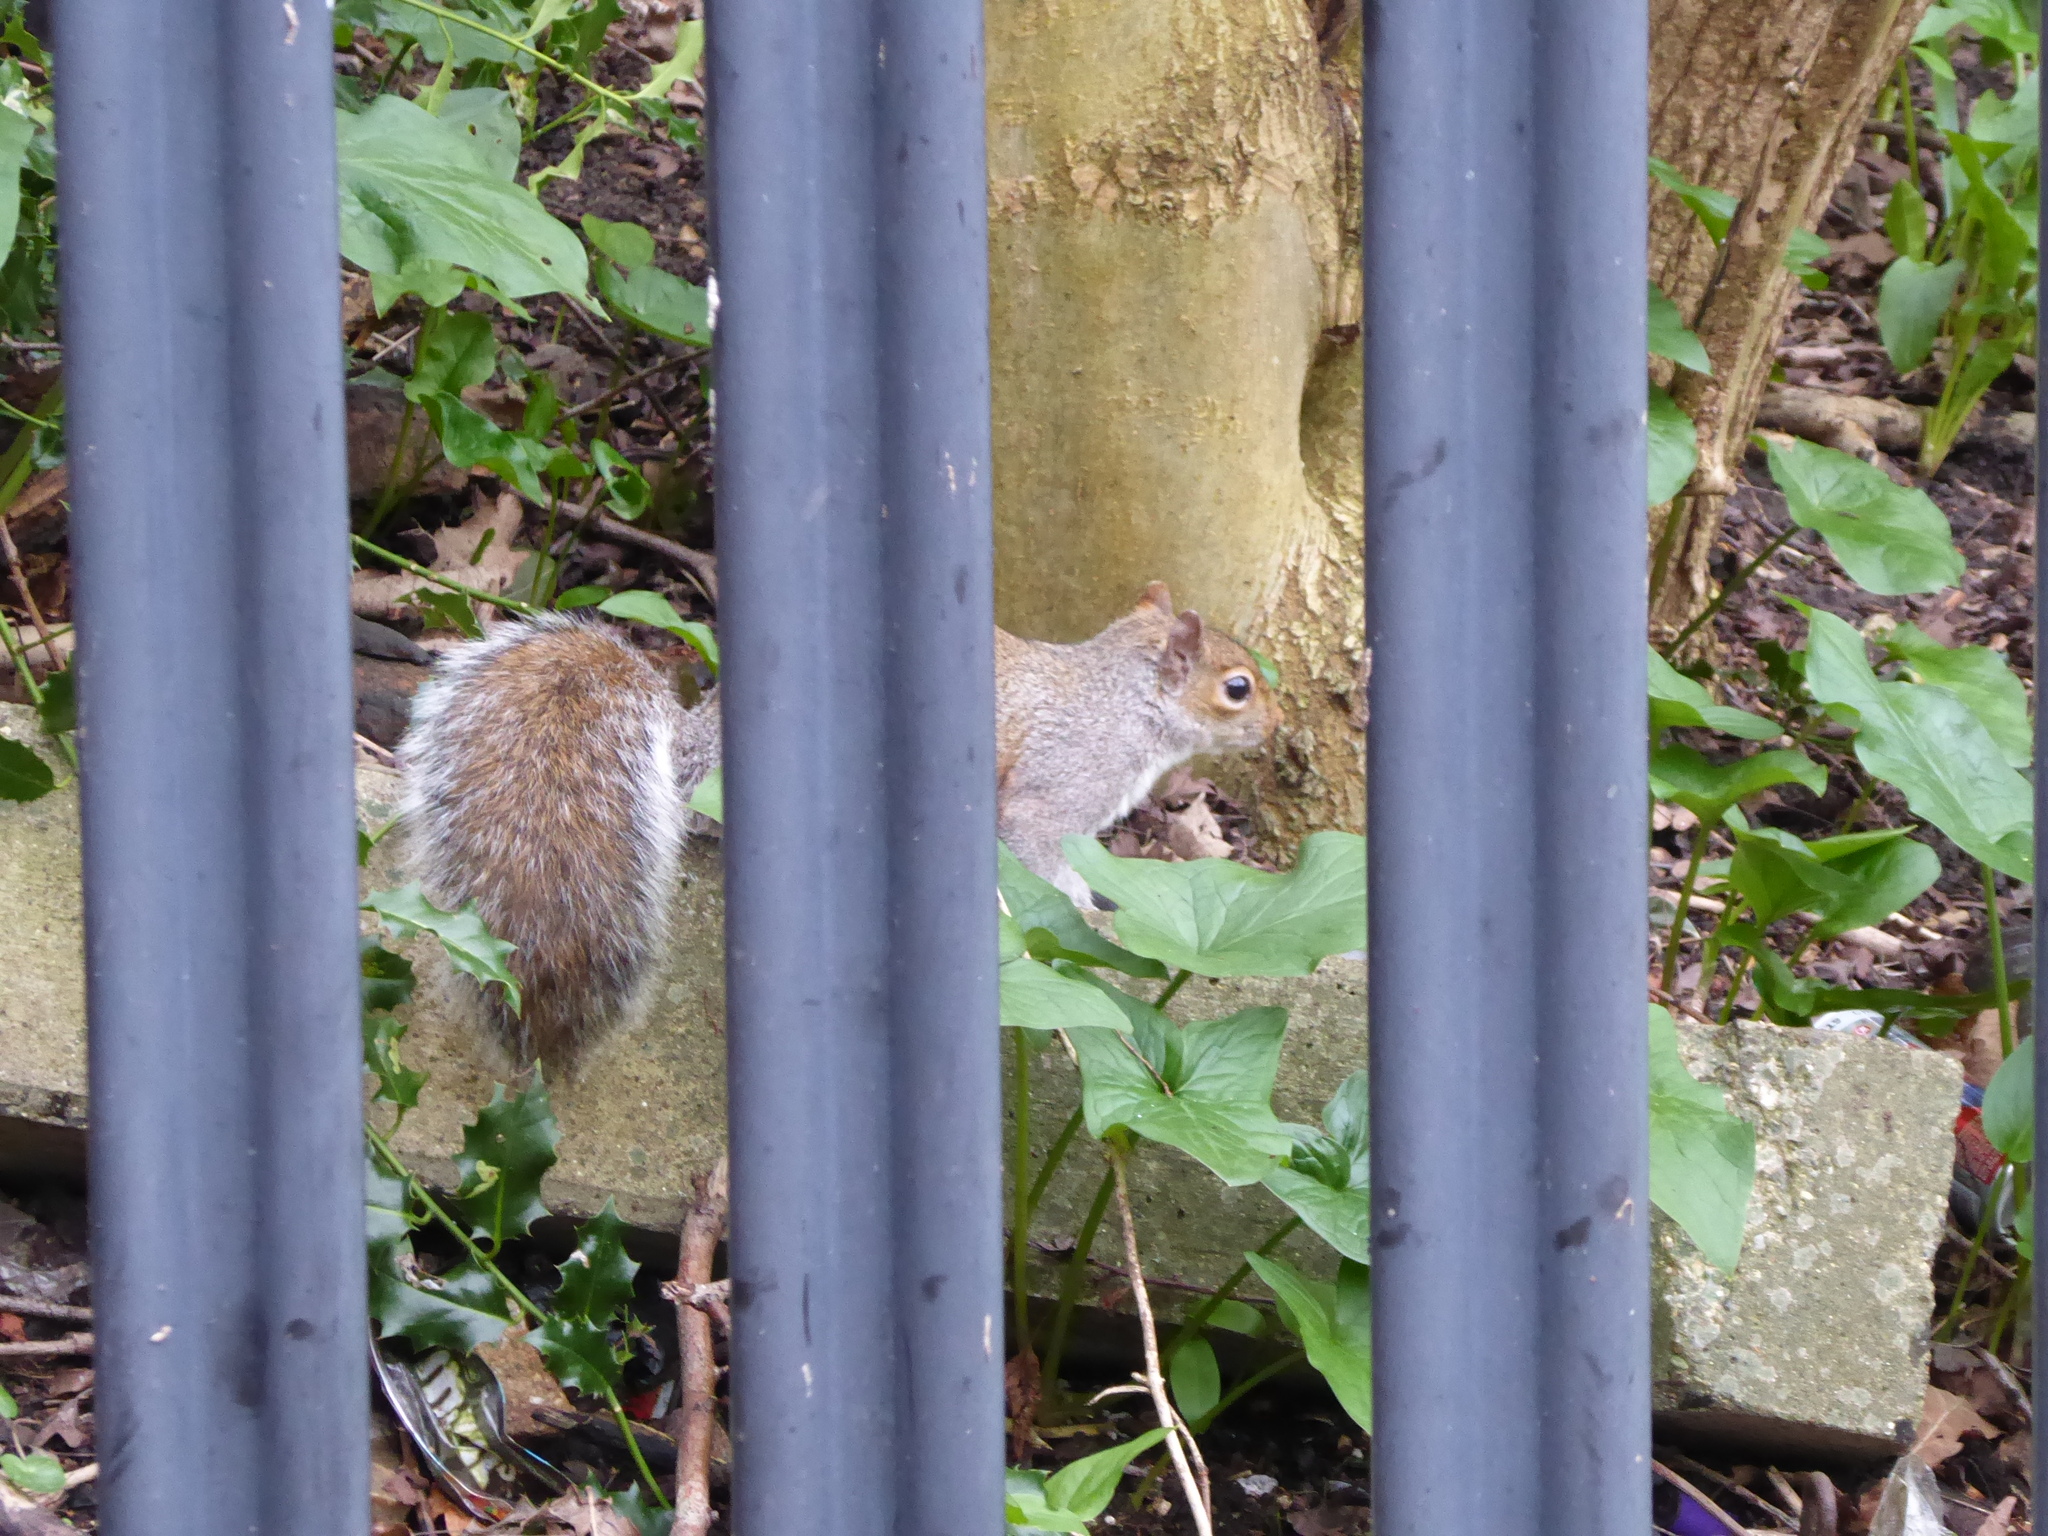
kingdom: Animalia
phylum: Chordata
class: Mammalia
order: Rodentia
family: Sciuridae
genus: Sciurus
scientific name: Sciurus carolinensis
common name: Eastern gray squirrel
